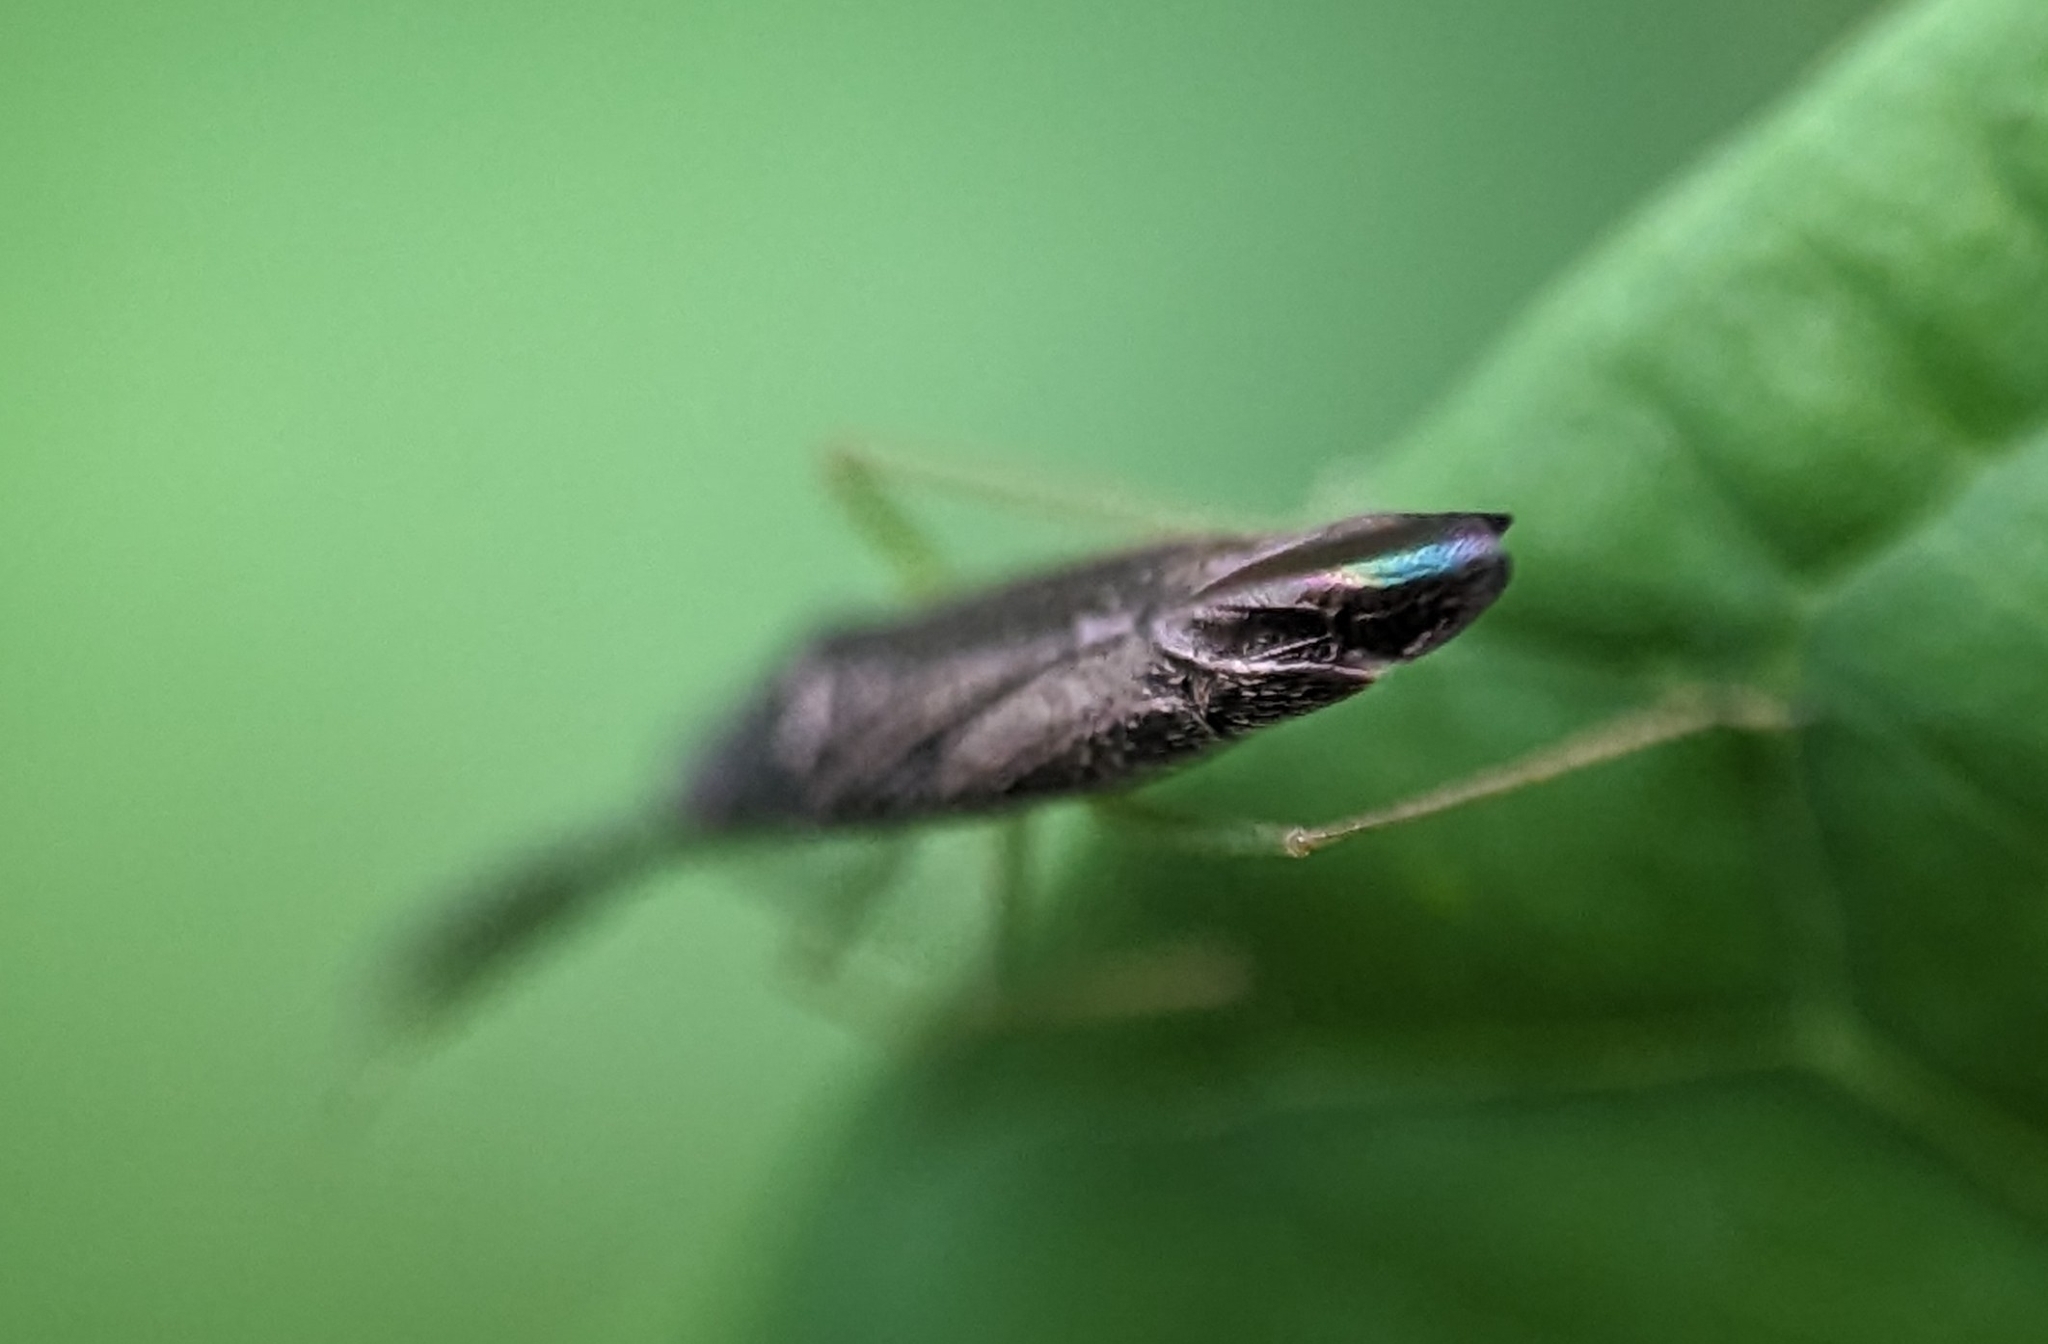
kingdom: Animalia
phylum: Arthropoda
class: Insecta
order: Hemiptera
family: Miridae
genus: Heterotoma
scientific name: Heterotoma planicornis
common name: Plant bug
